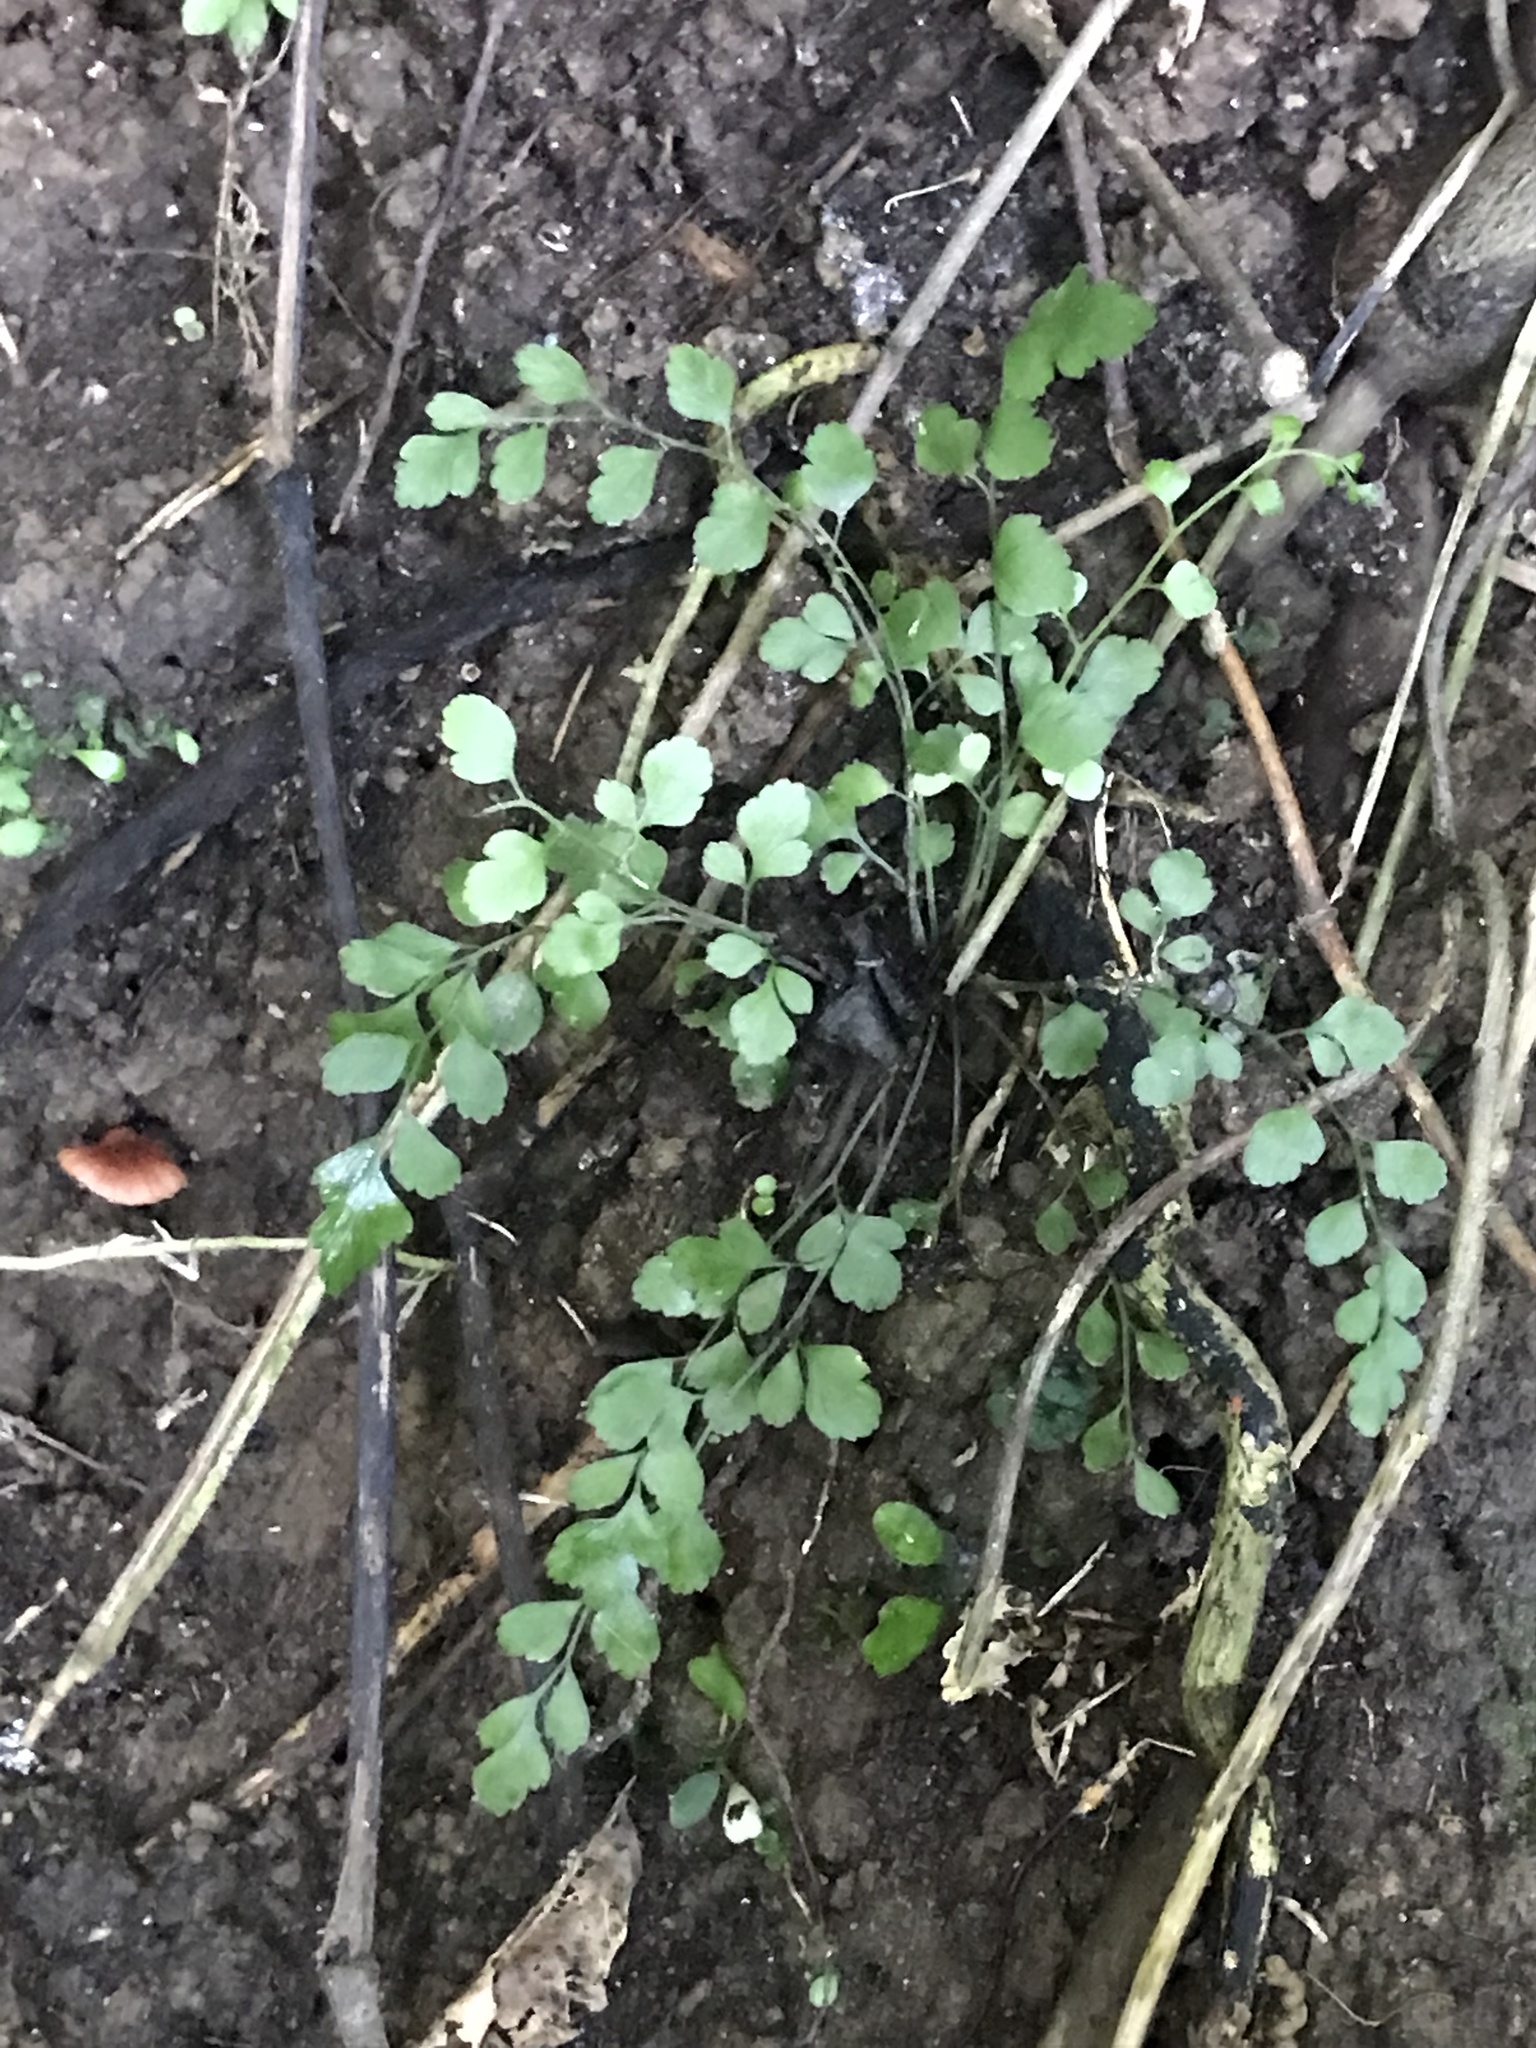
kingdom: Plantae
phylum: Tracheophyta
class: Polypodiopsida
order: Polypodiales
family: Aspleniaceae
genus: Asplenium
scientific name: Asplenium hookerianum
